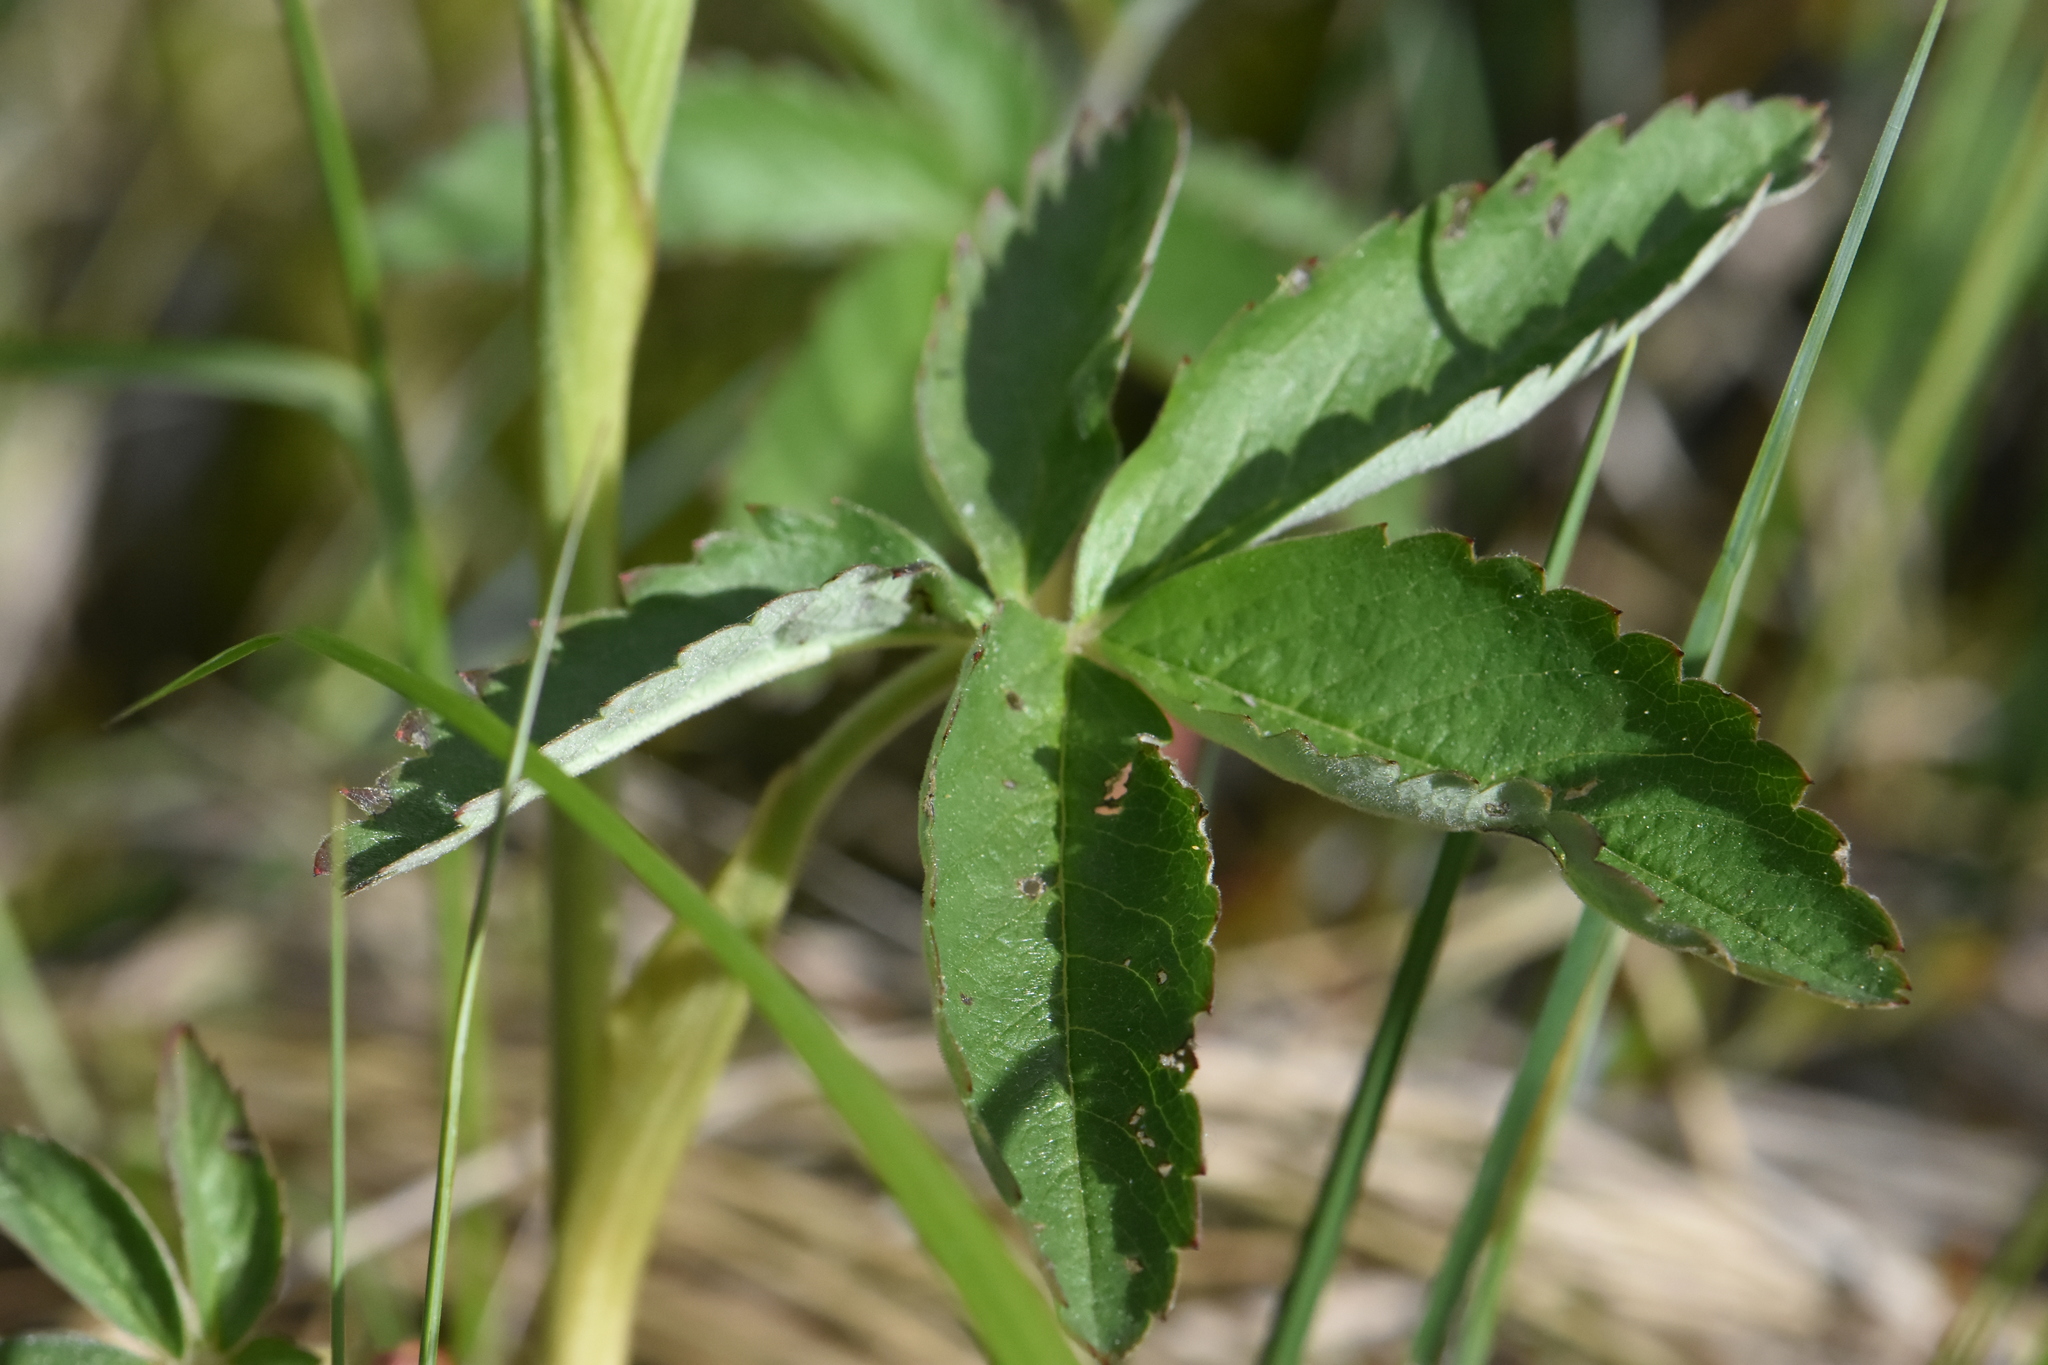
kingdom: Plantae
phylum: Tracheophyta
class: Magnoliopsida
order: Rosales
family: Rosaceae
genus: Comarum
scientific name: Comarum palustre
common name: Marsh cinquefoil
